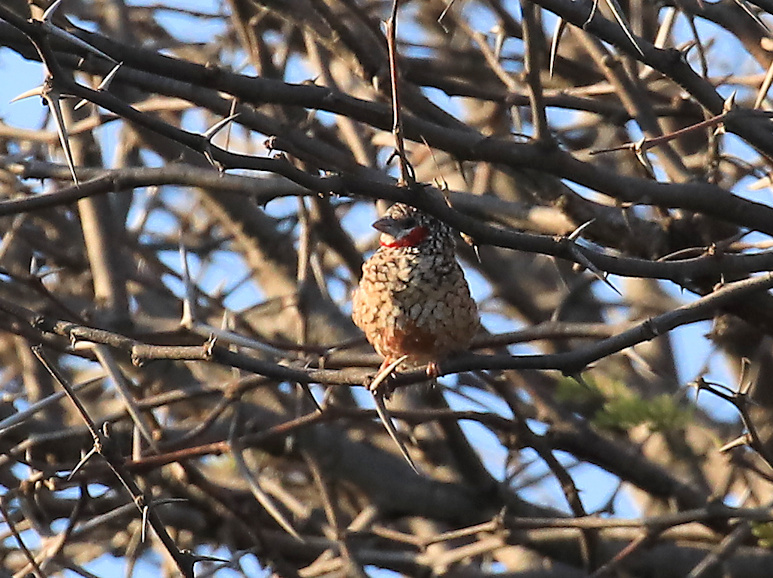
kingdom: Animalia
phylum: Chordata
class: Aves
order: Passeriformes
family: Estrildidae
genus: Amadina
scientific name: Amadina fasciata
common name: Cut-throat finch
